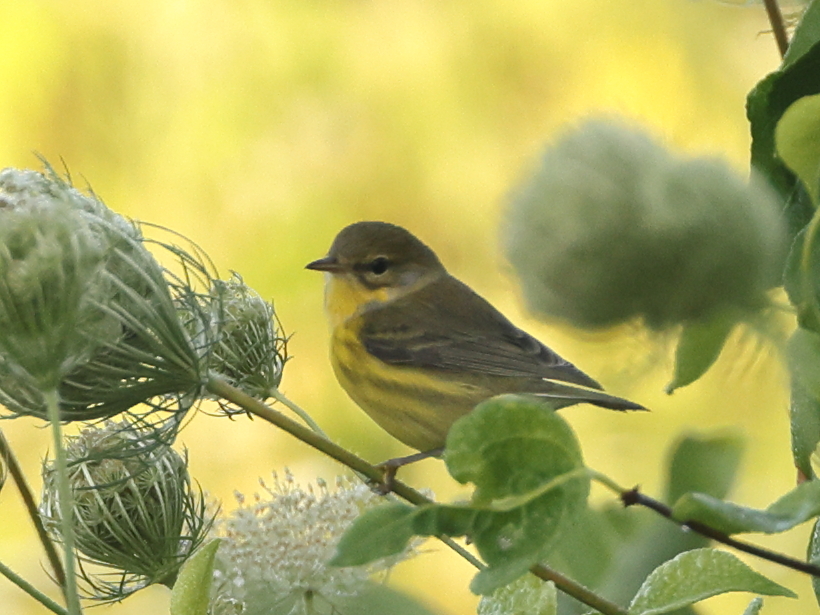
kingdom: Animalia
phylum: Chordata
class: Aves
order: Passeriformes
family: Parulidae
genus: Setophaga
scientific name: Setophaga discolor
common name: Prairie warbler
